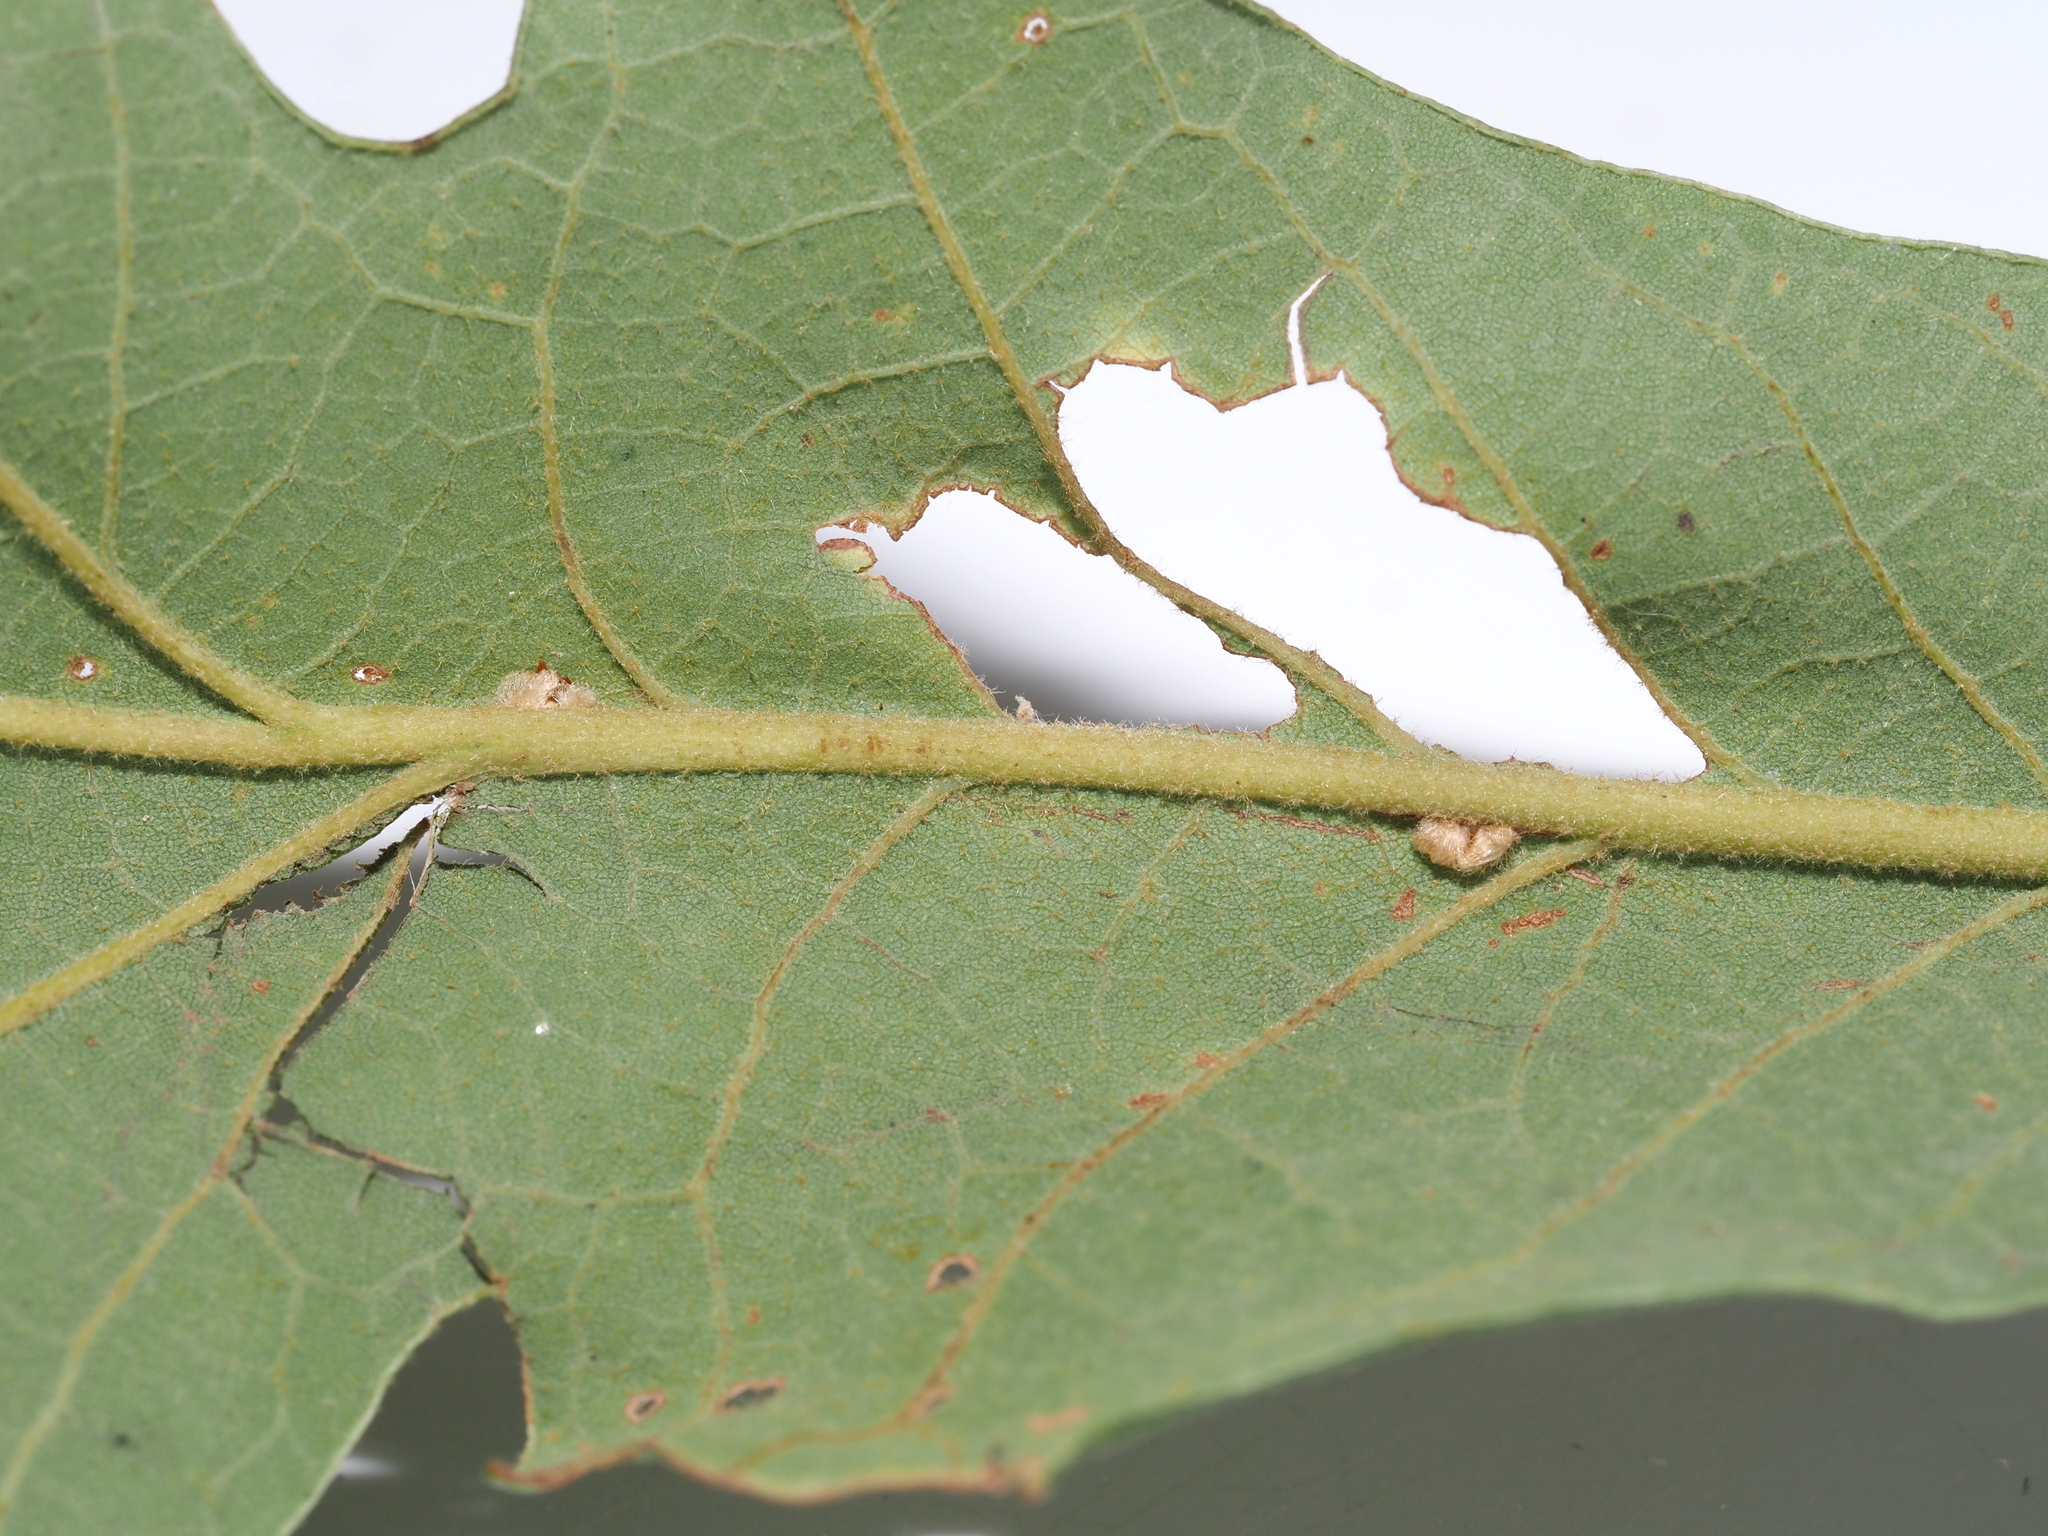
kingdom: Animalia
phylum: Arthropoda
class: Insecta
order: Hymenoptera
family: Cynipidae
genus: Andricus
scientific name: Andricus Druon pattoni
